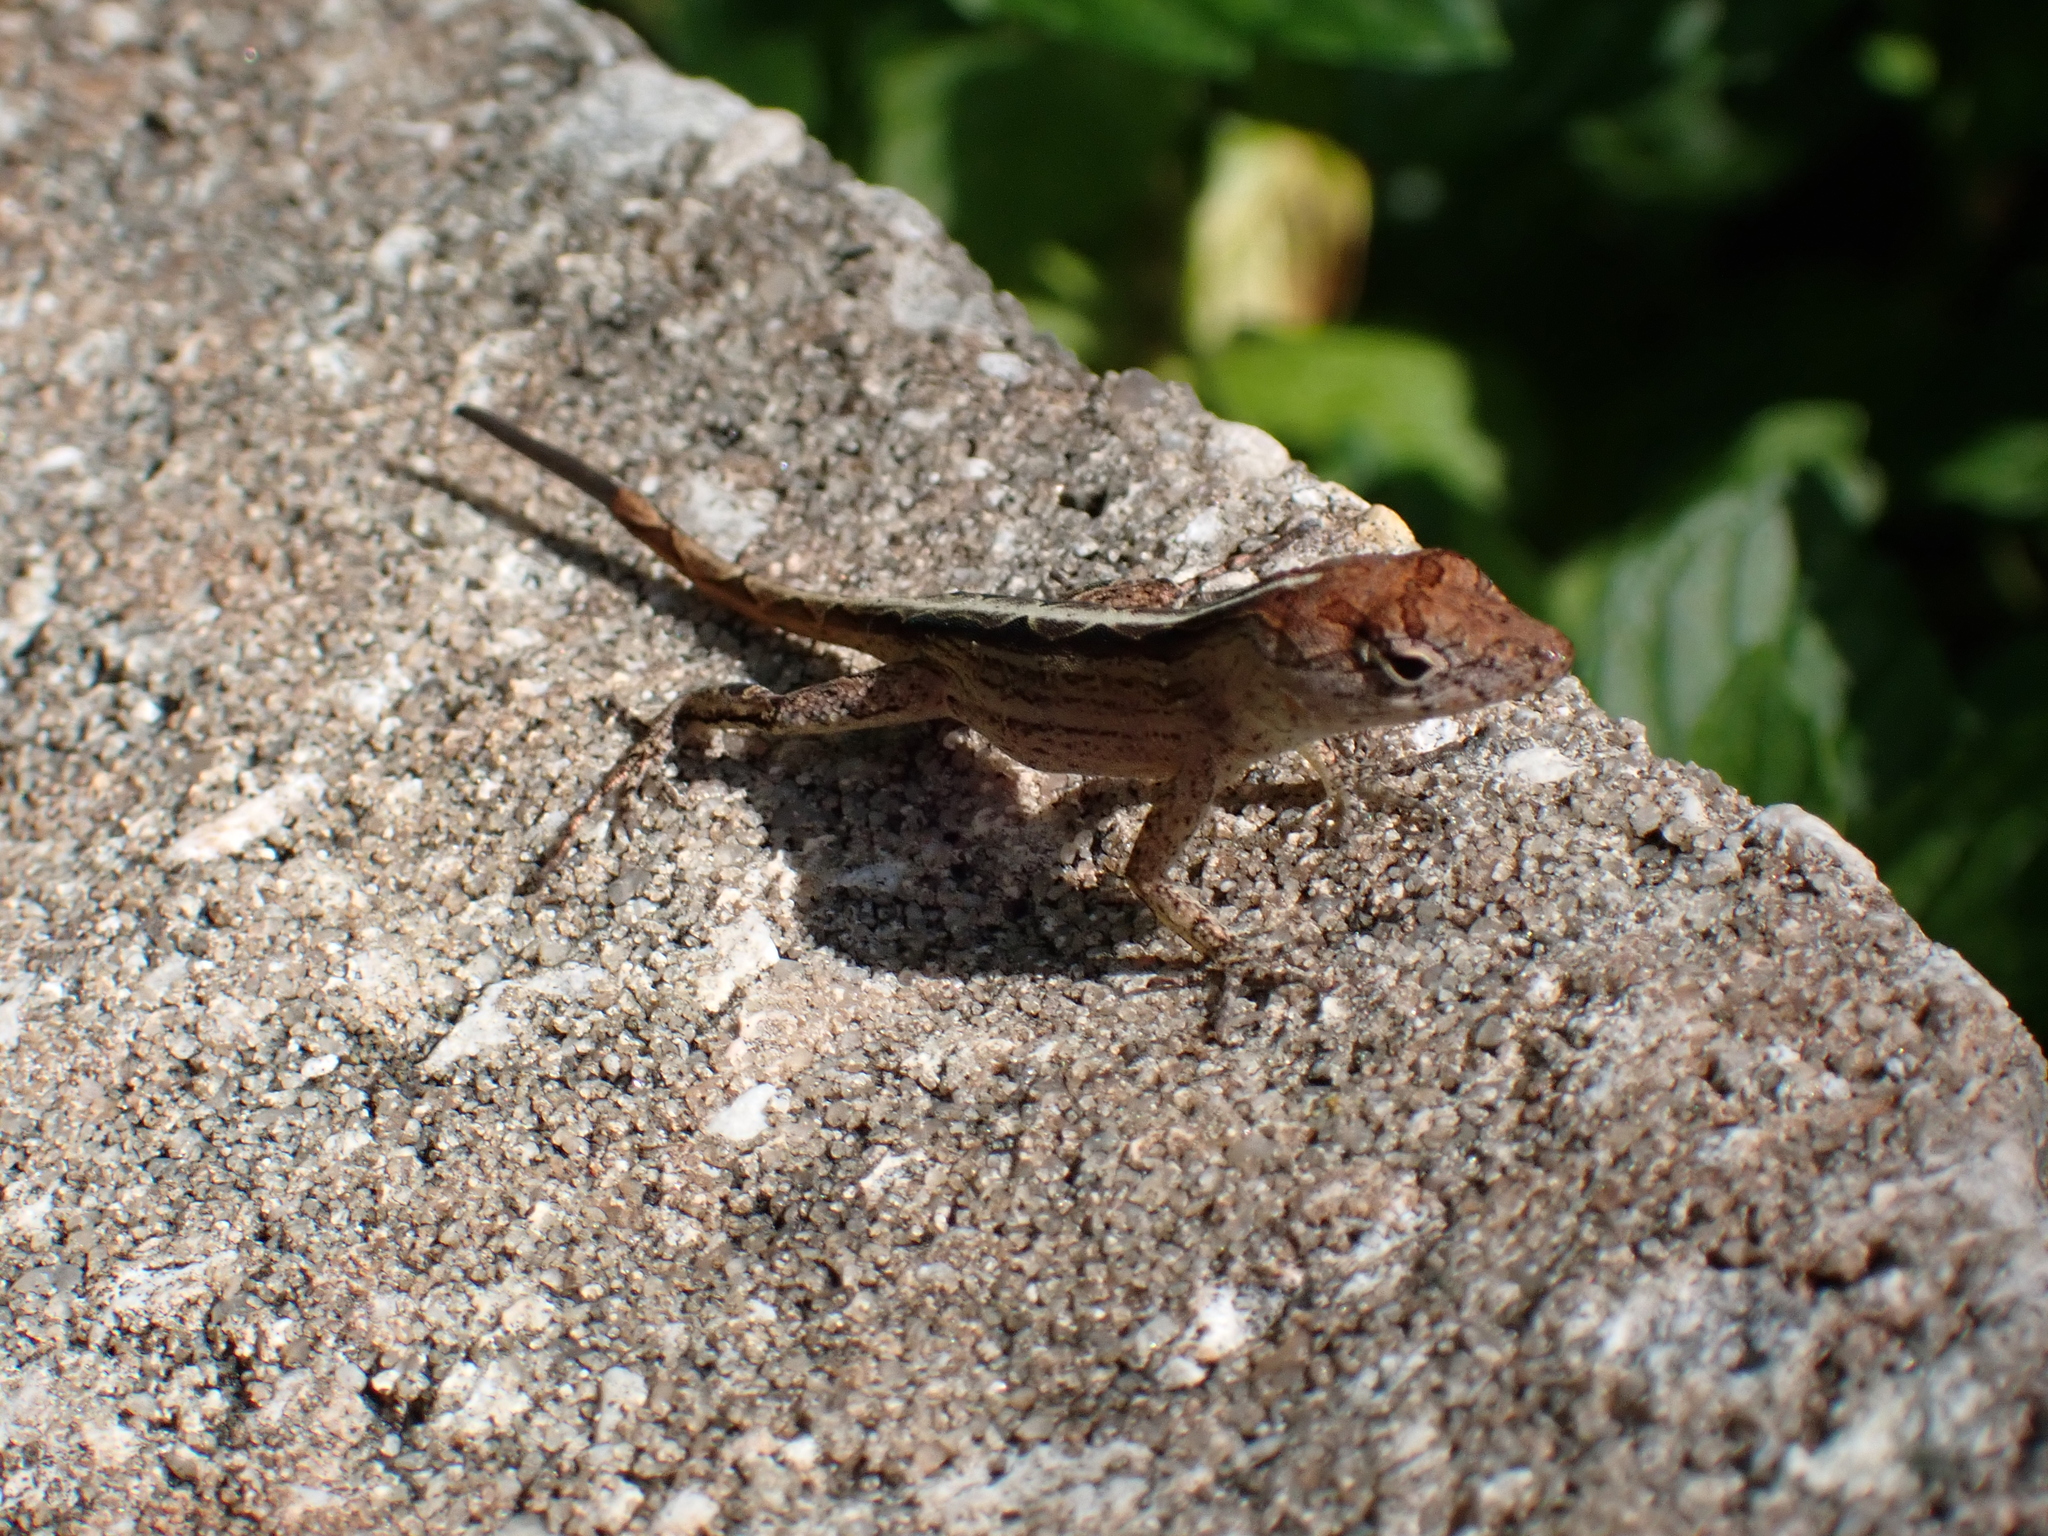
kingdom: Animalia
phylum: Chordata
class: Squamata
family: Dactyloidae
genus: Anolis
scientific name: Anolis sagrei
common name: Brown anole
